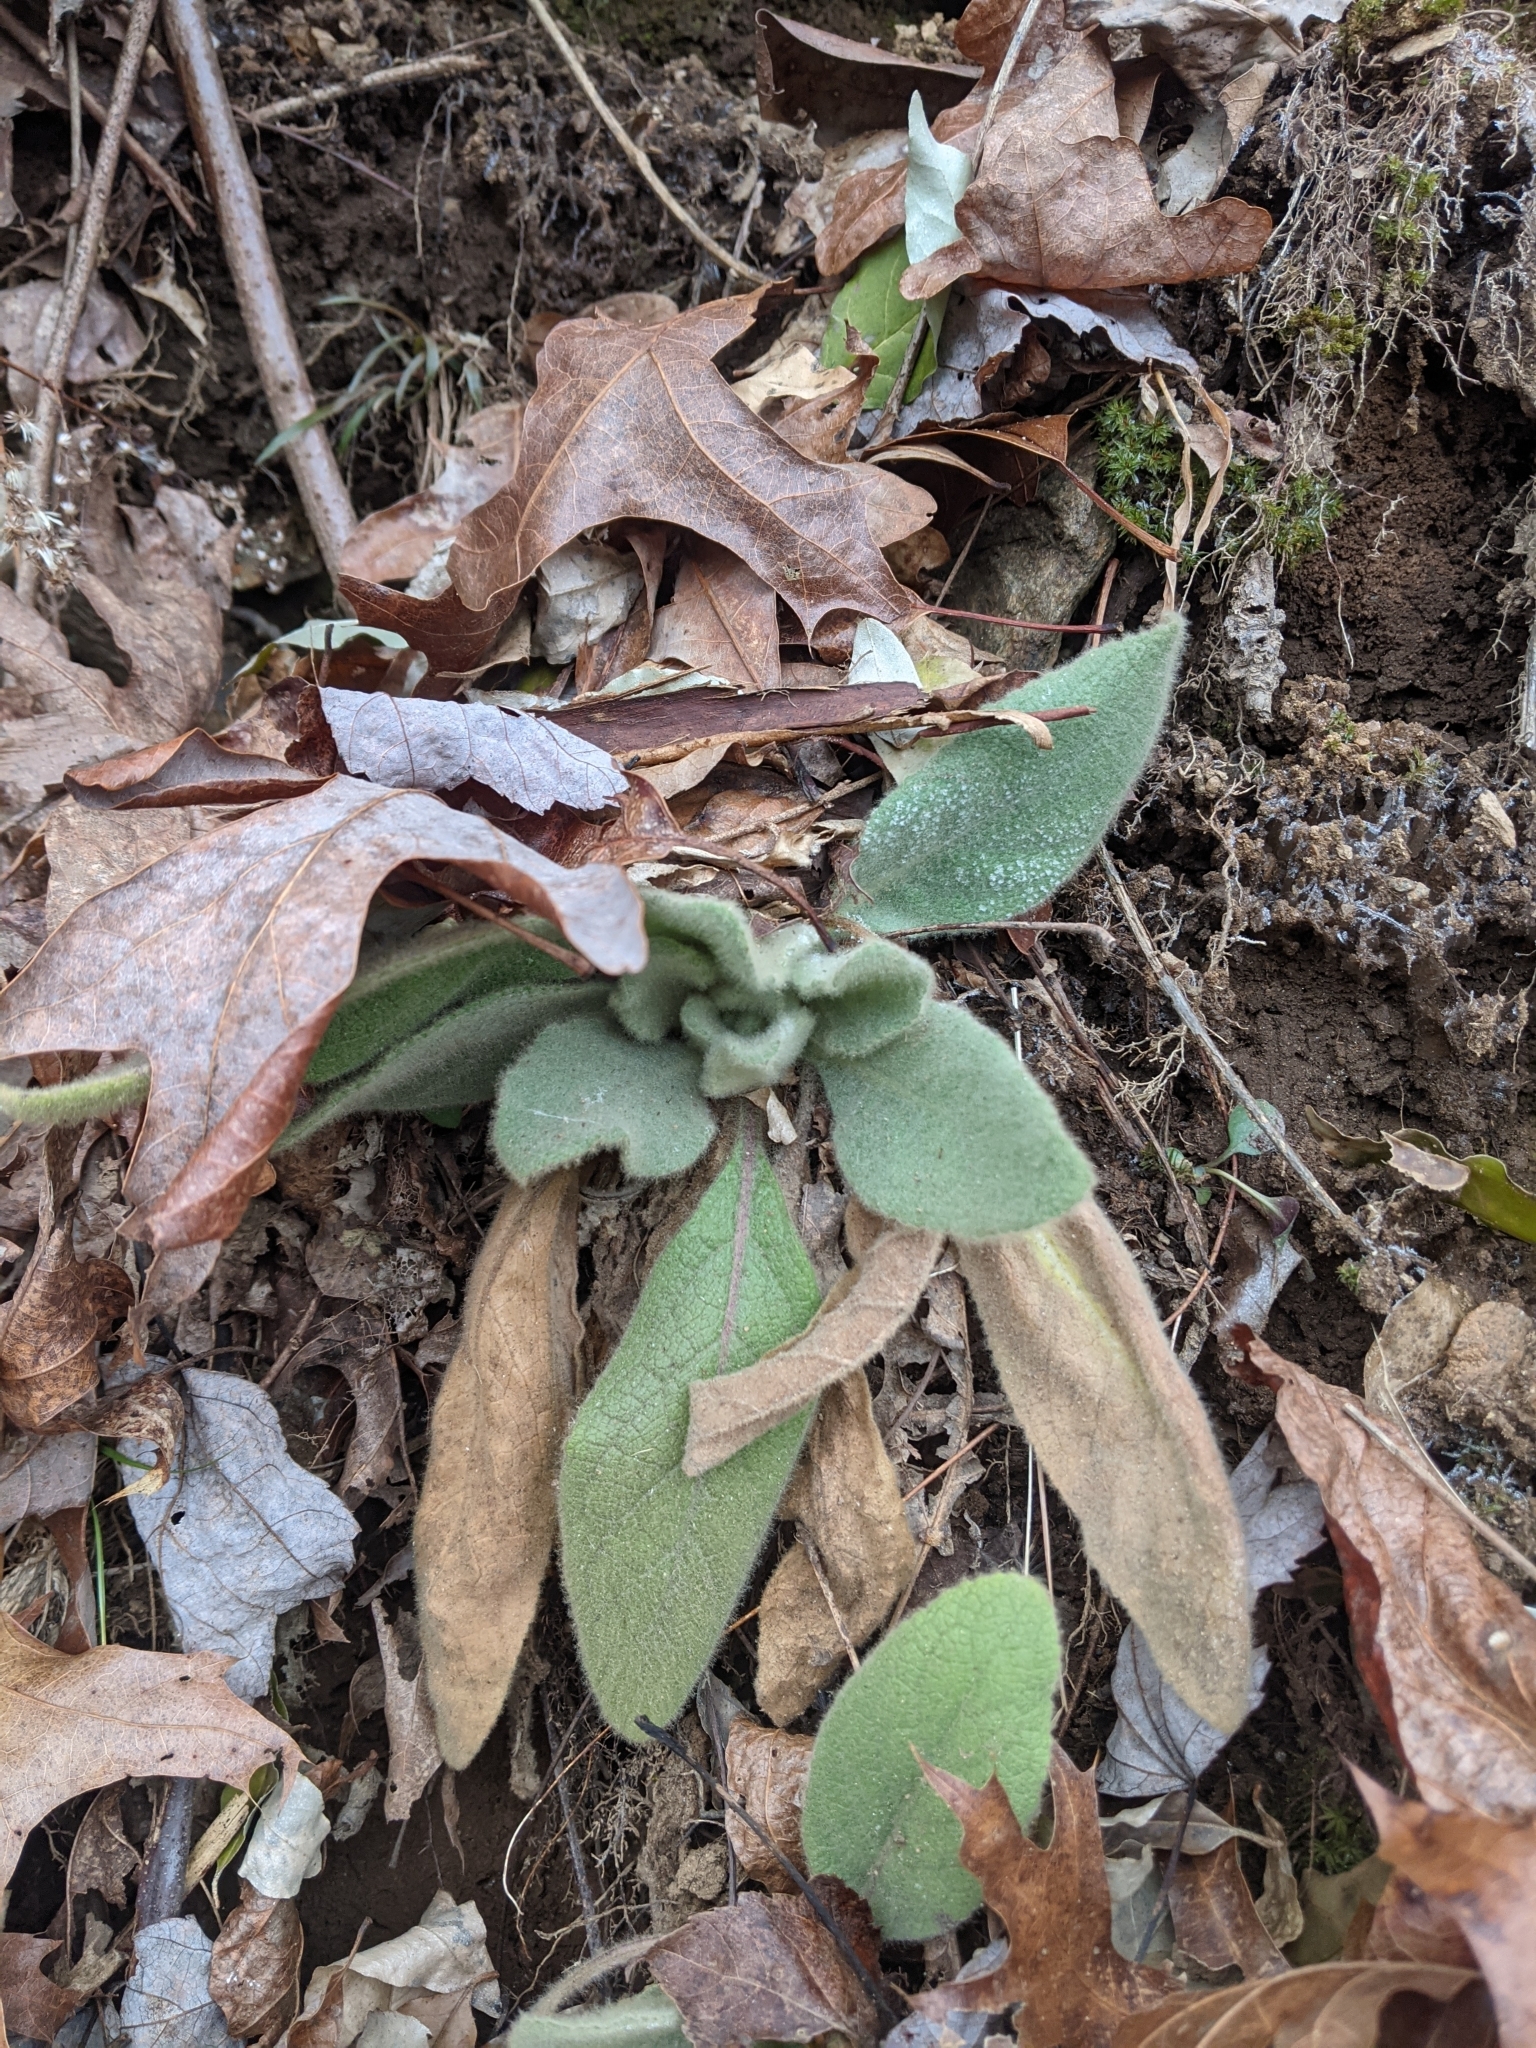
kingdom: Plantae
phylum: Tracheophyta
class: Magnoliopsida
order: Lamiales
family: Scrophulariaceae
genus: Verbascum
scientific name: Verbascum thapsus
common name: Common mullein
